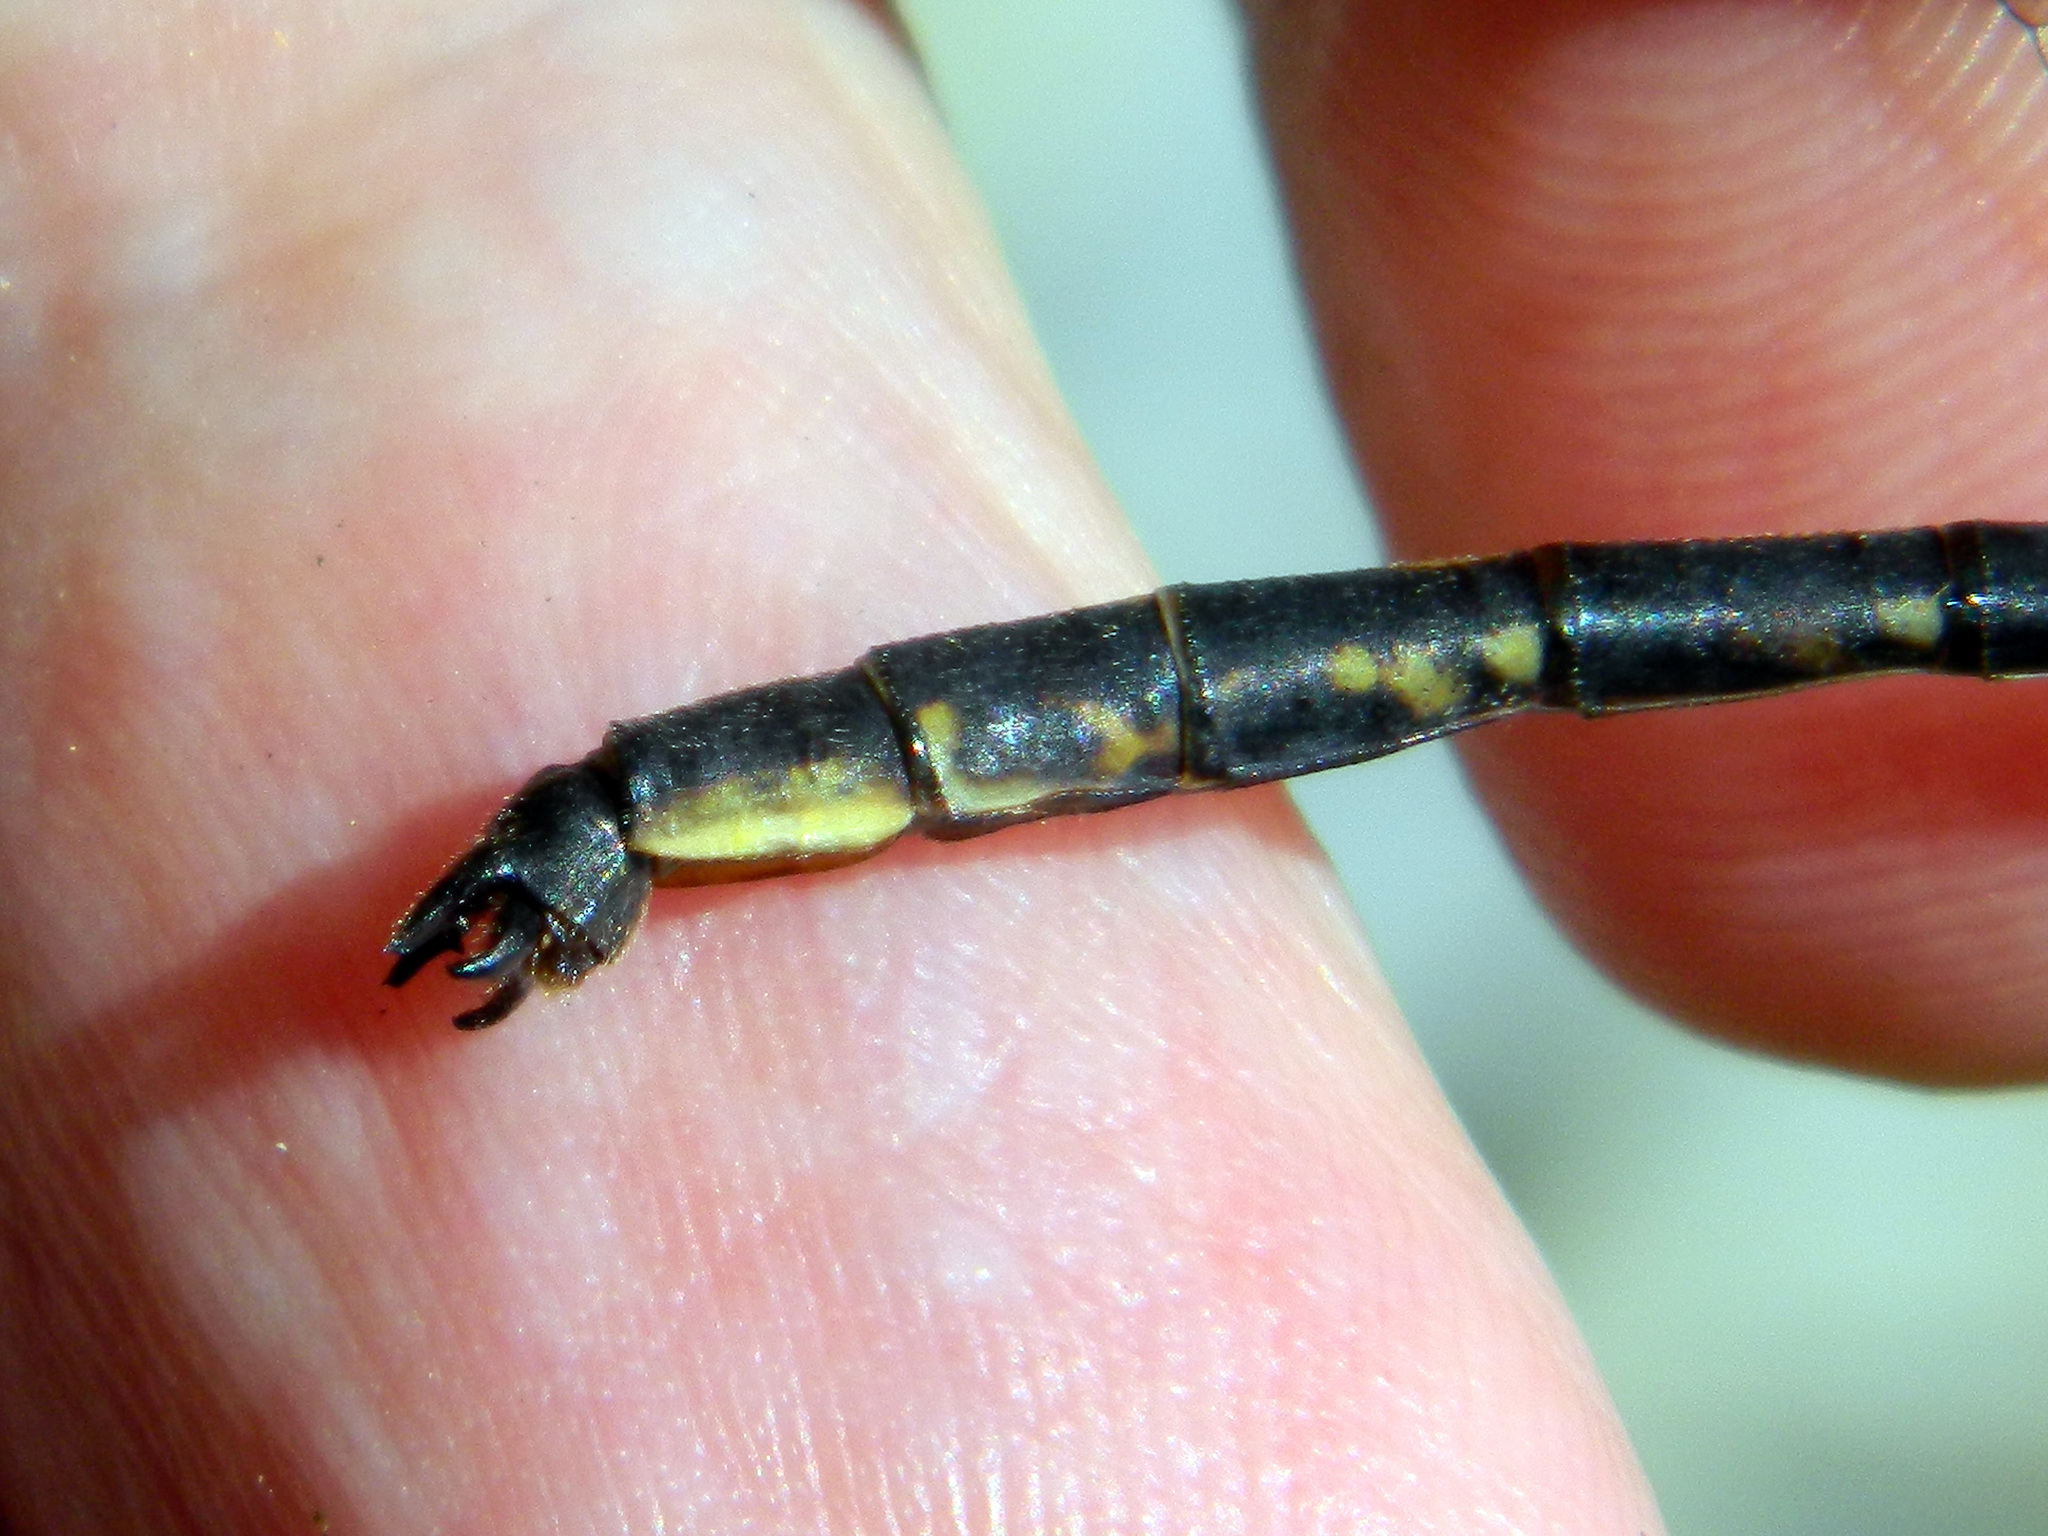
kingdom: Animalia
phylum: Arthropoda
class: Insecta
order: Odonata
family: Gomphidae
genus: Phanogomphus
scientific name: Phanogomphus spicatus
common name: Dusky clubtail
